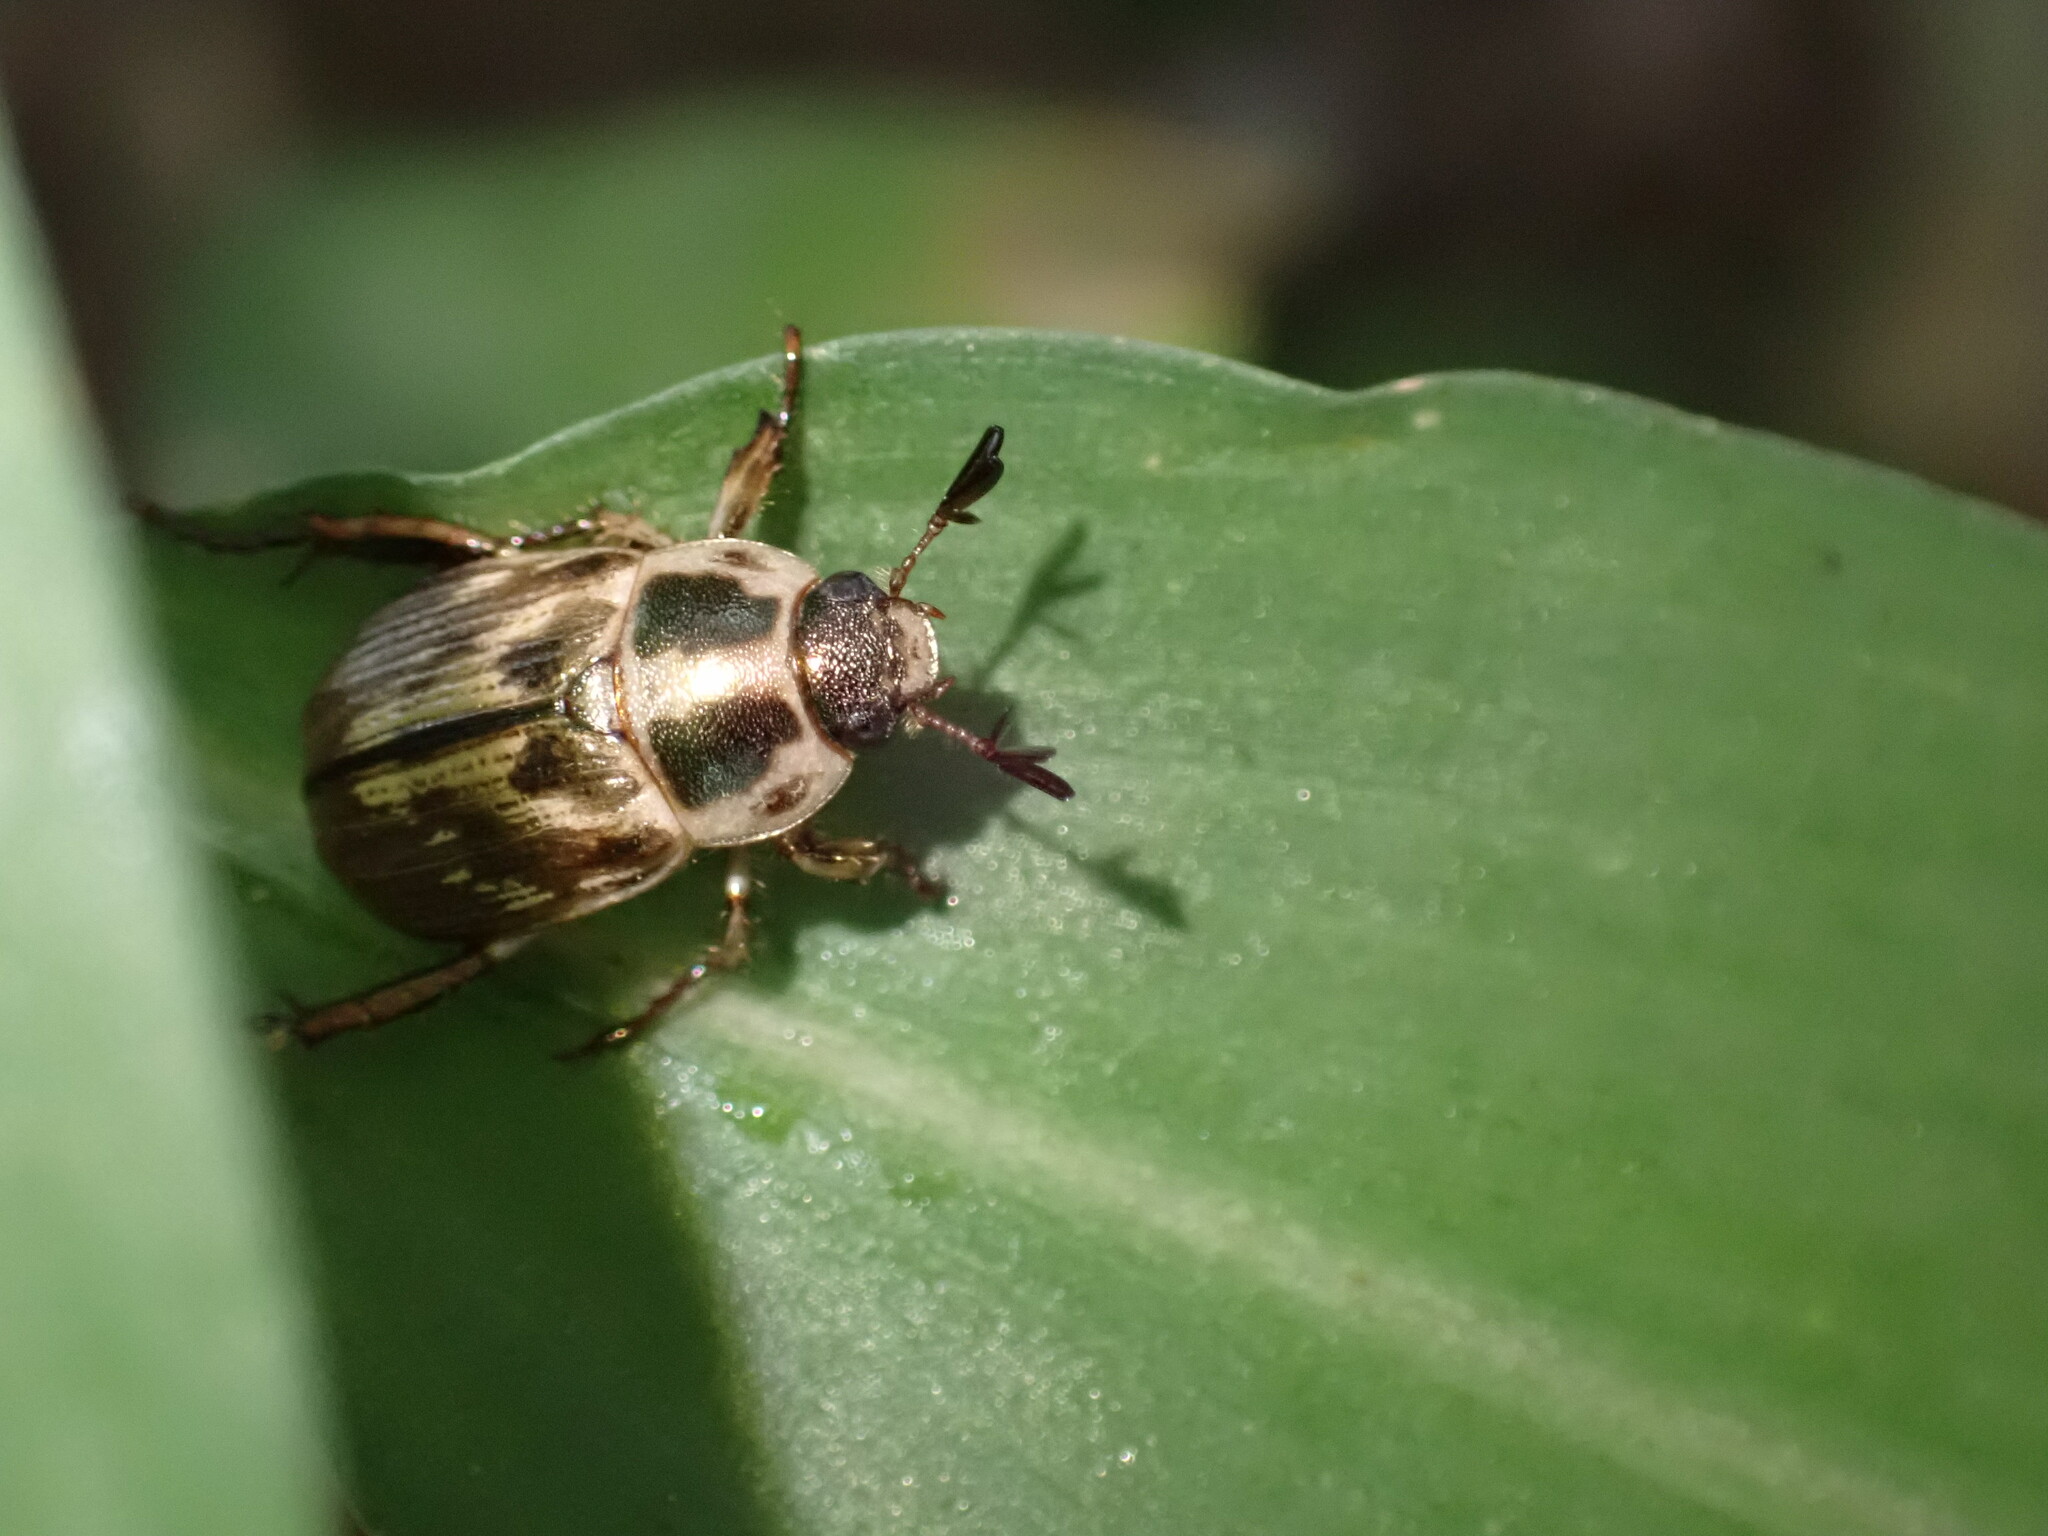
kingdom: Animalia
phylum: Arthropoda
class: Insecta
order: Coleoptera
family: Scarabaeidae
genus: Exomala
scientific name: Exomala orientalis
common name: Oriental beetle
